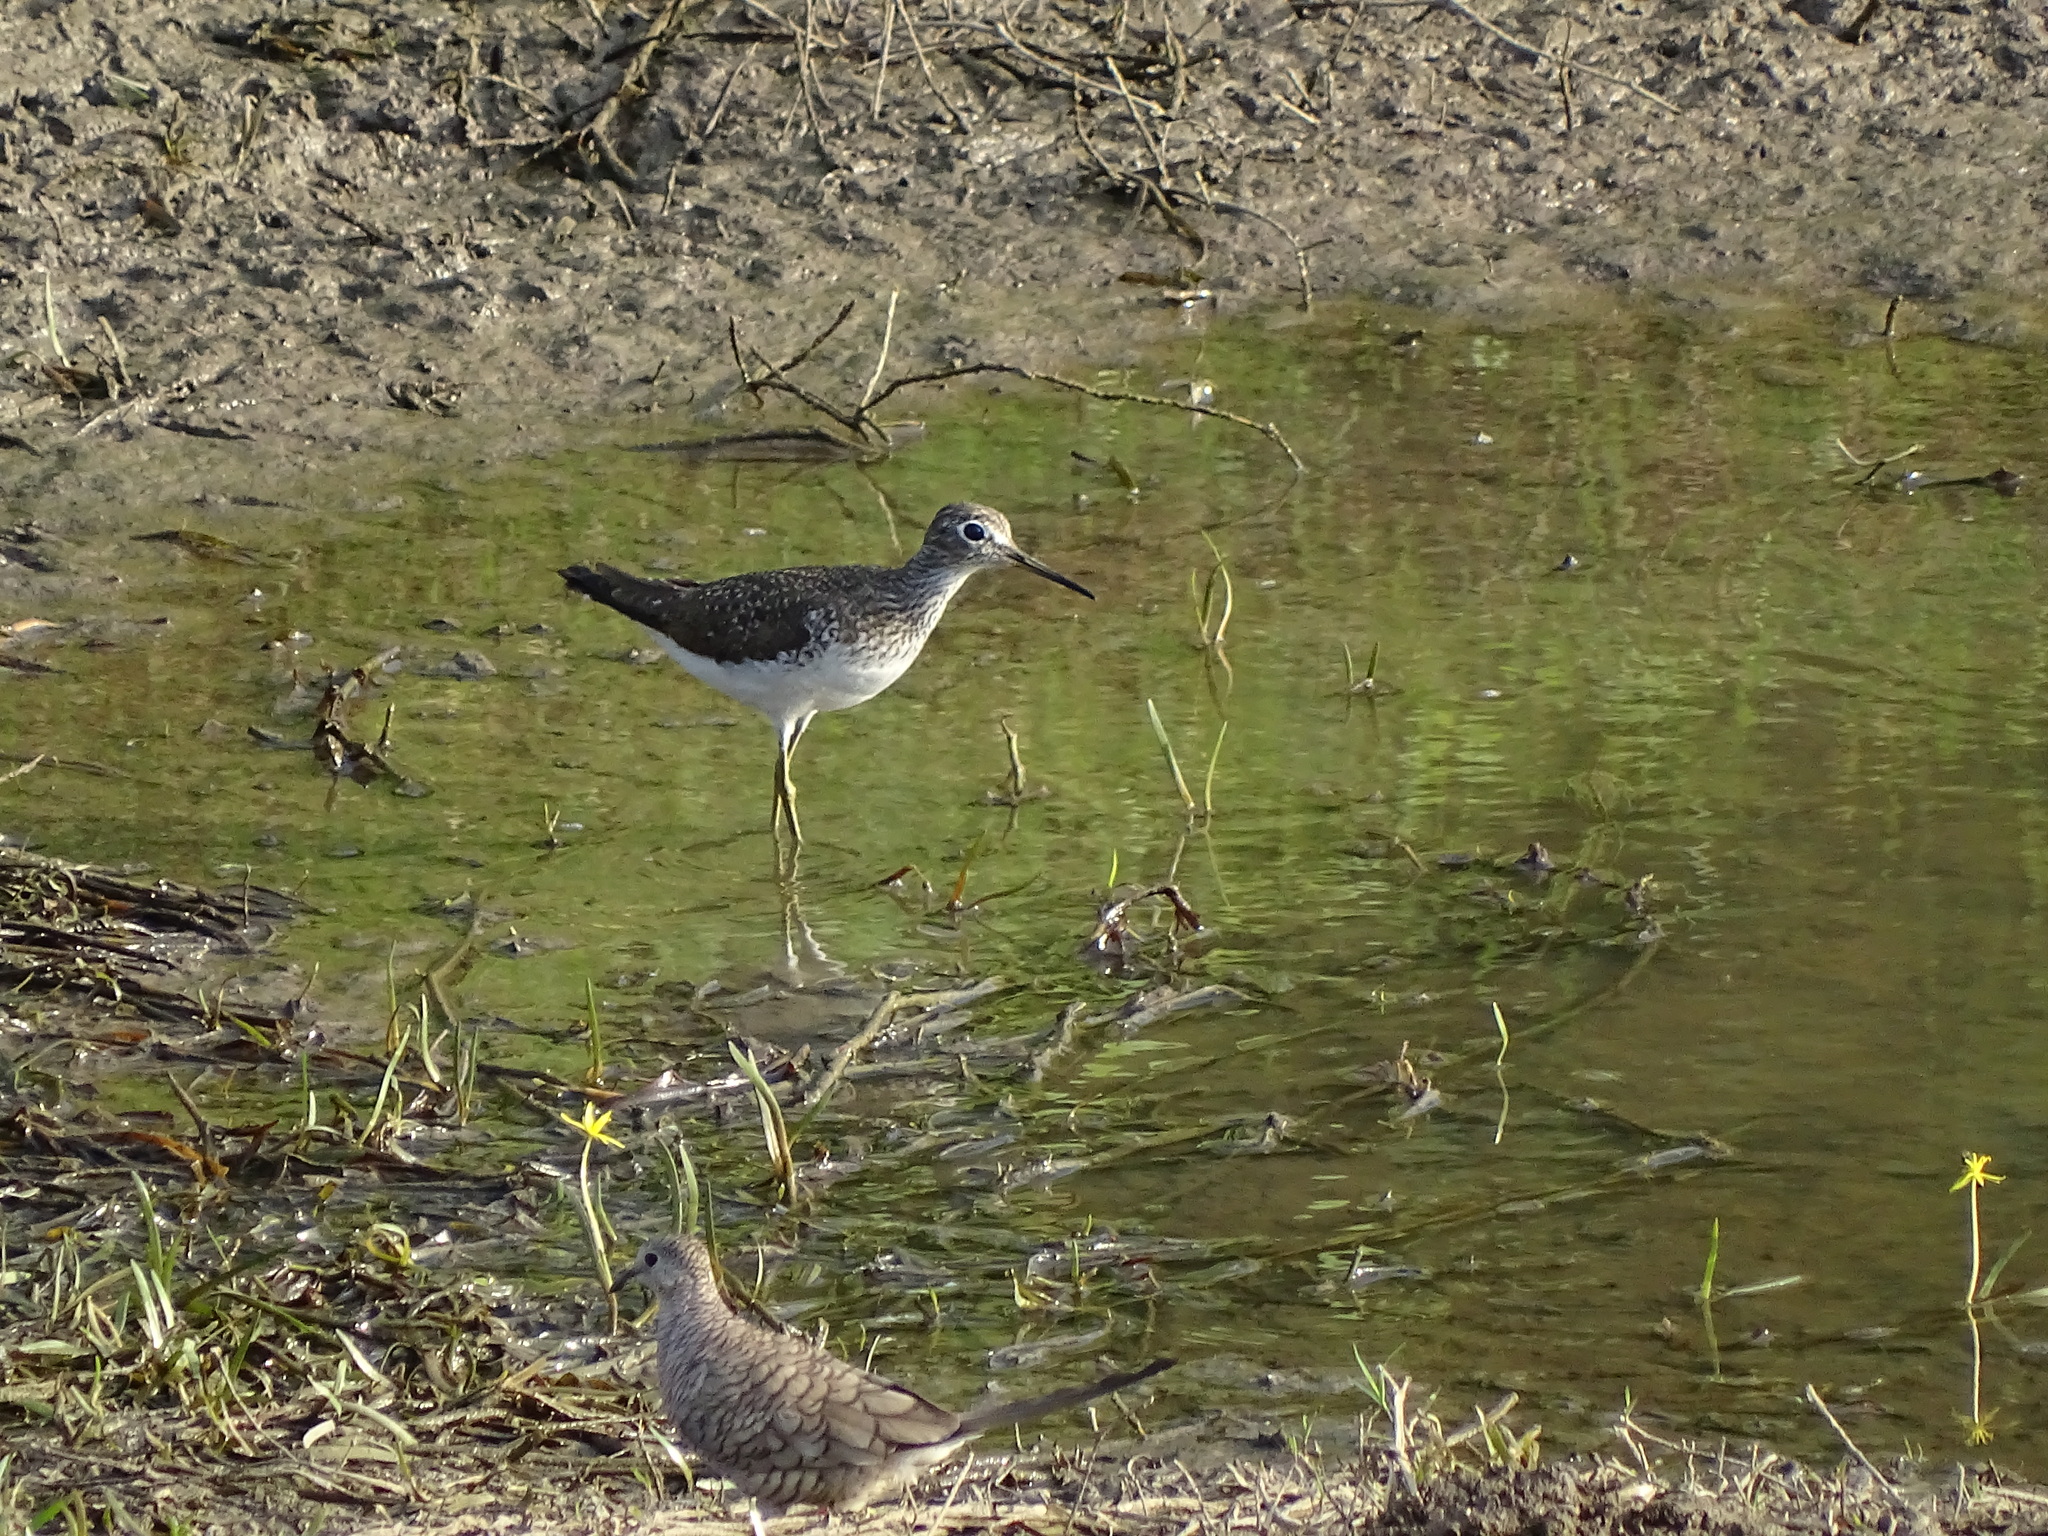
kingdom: Animalia
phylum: Chordata
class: Aves
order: Charadriiformes
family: Scolopacidae
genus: Tringa
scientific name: Tringa solitaria
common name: Solitary sandpiper
